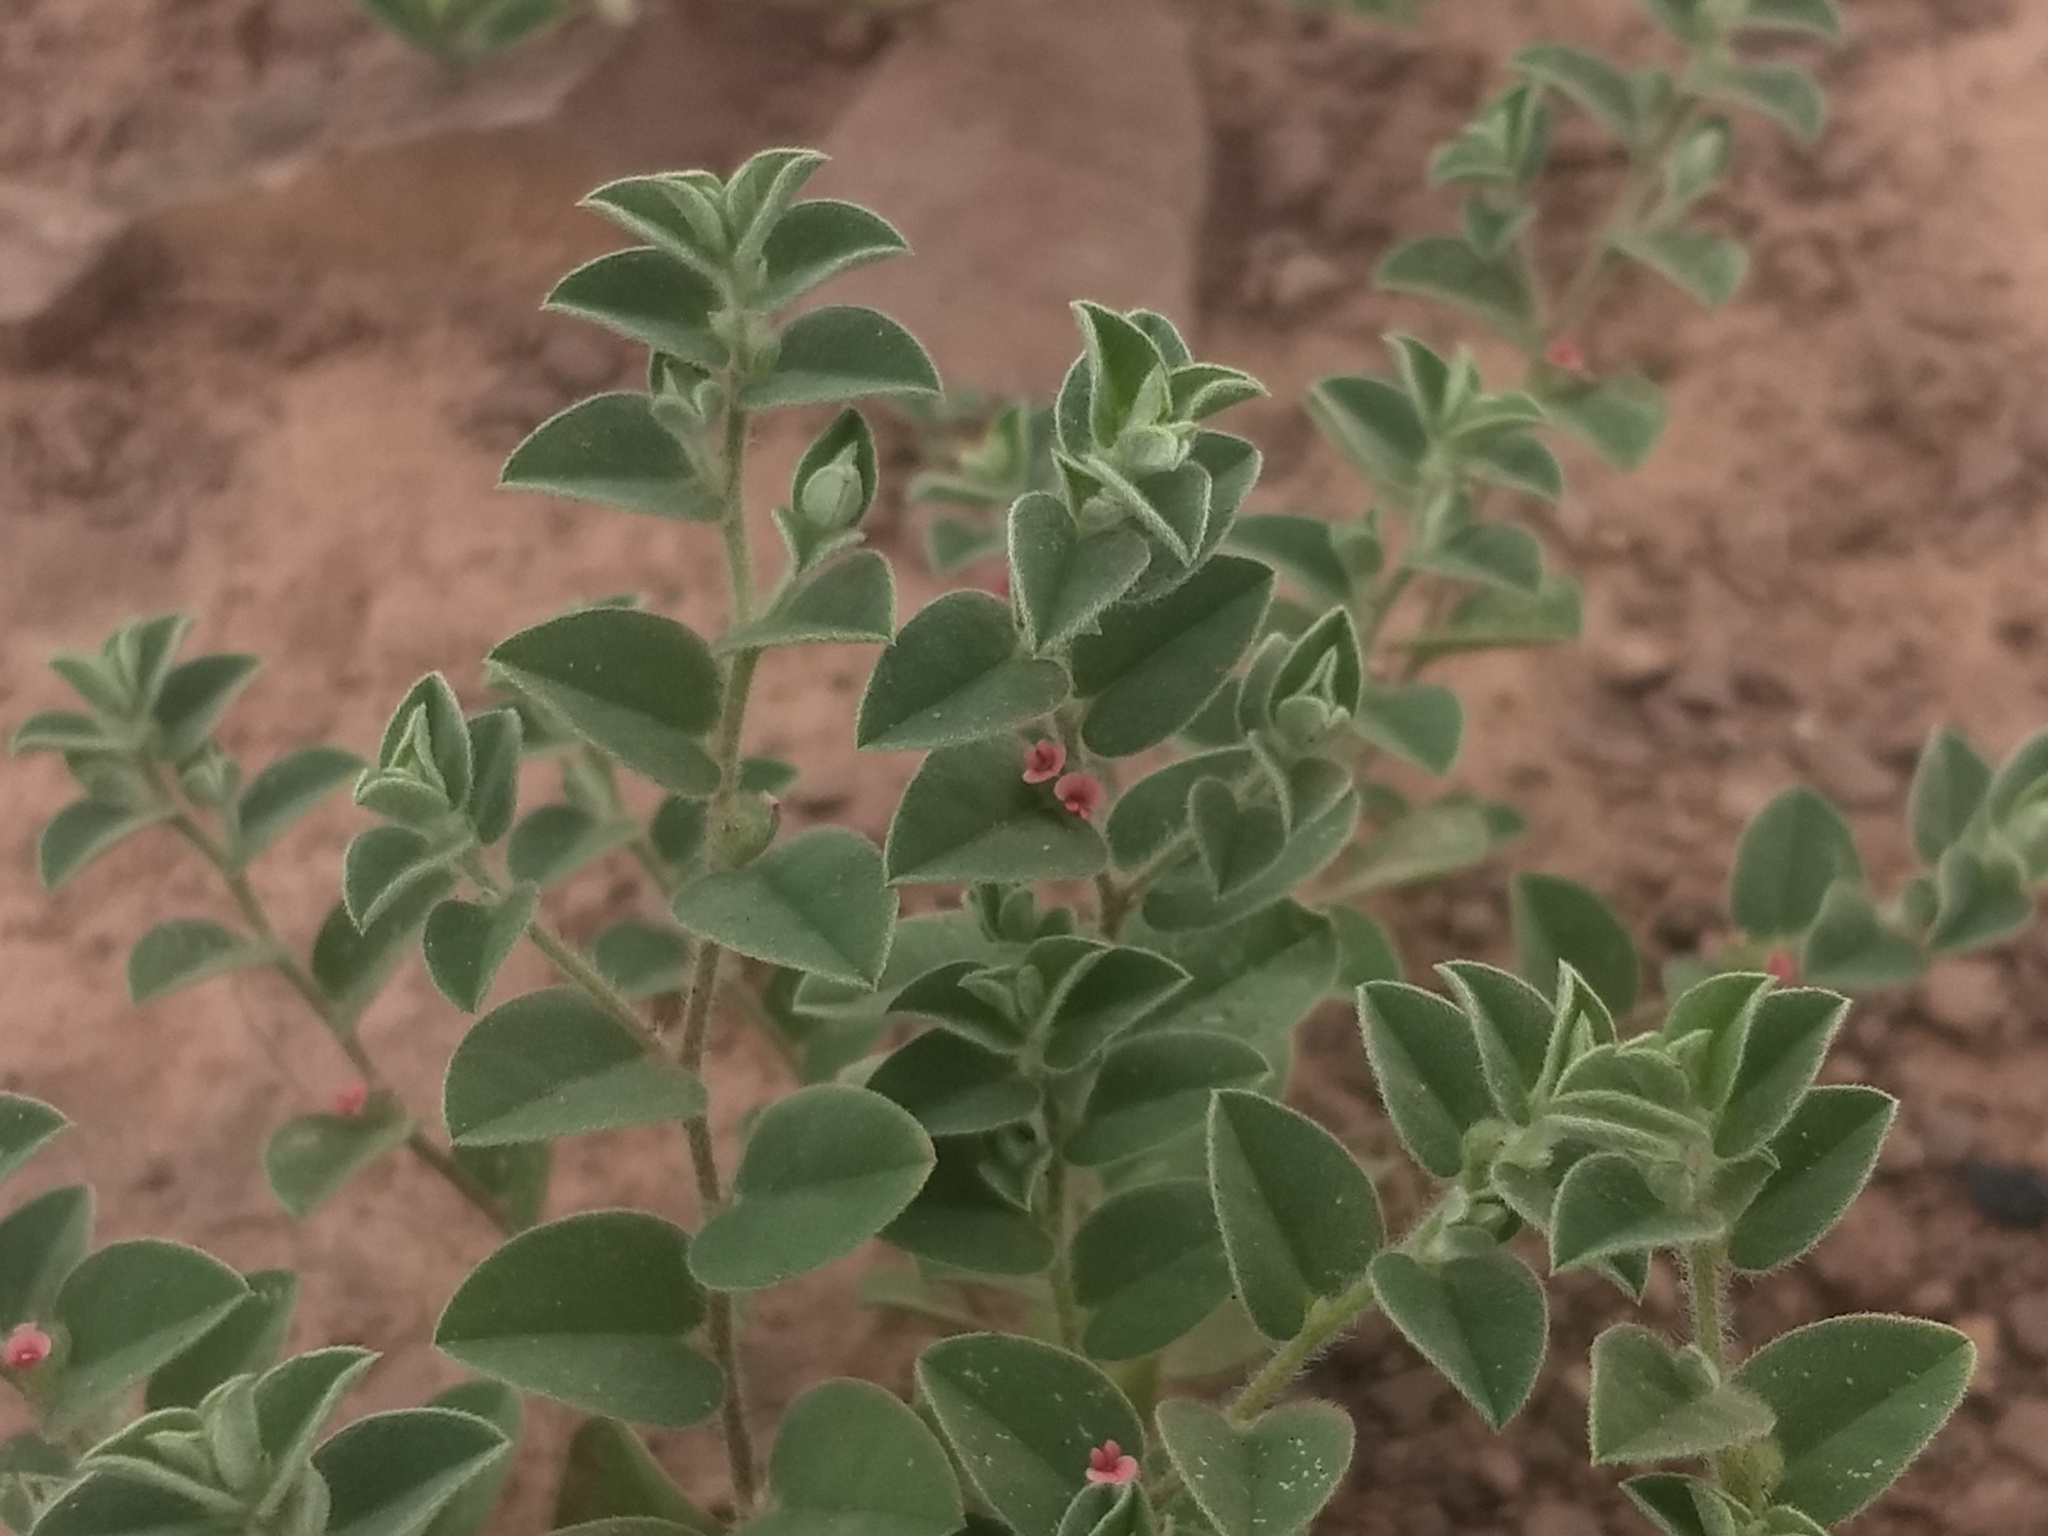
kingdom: Plantae
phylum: Tracheophyta
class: Magnoliopsida
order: Fabales
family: Fabaceae
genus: Indigofera
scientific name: Indigofera cordifolia
